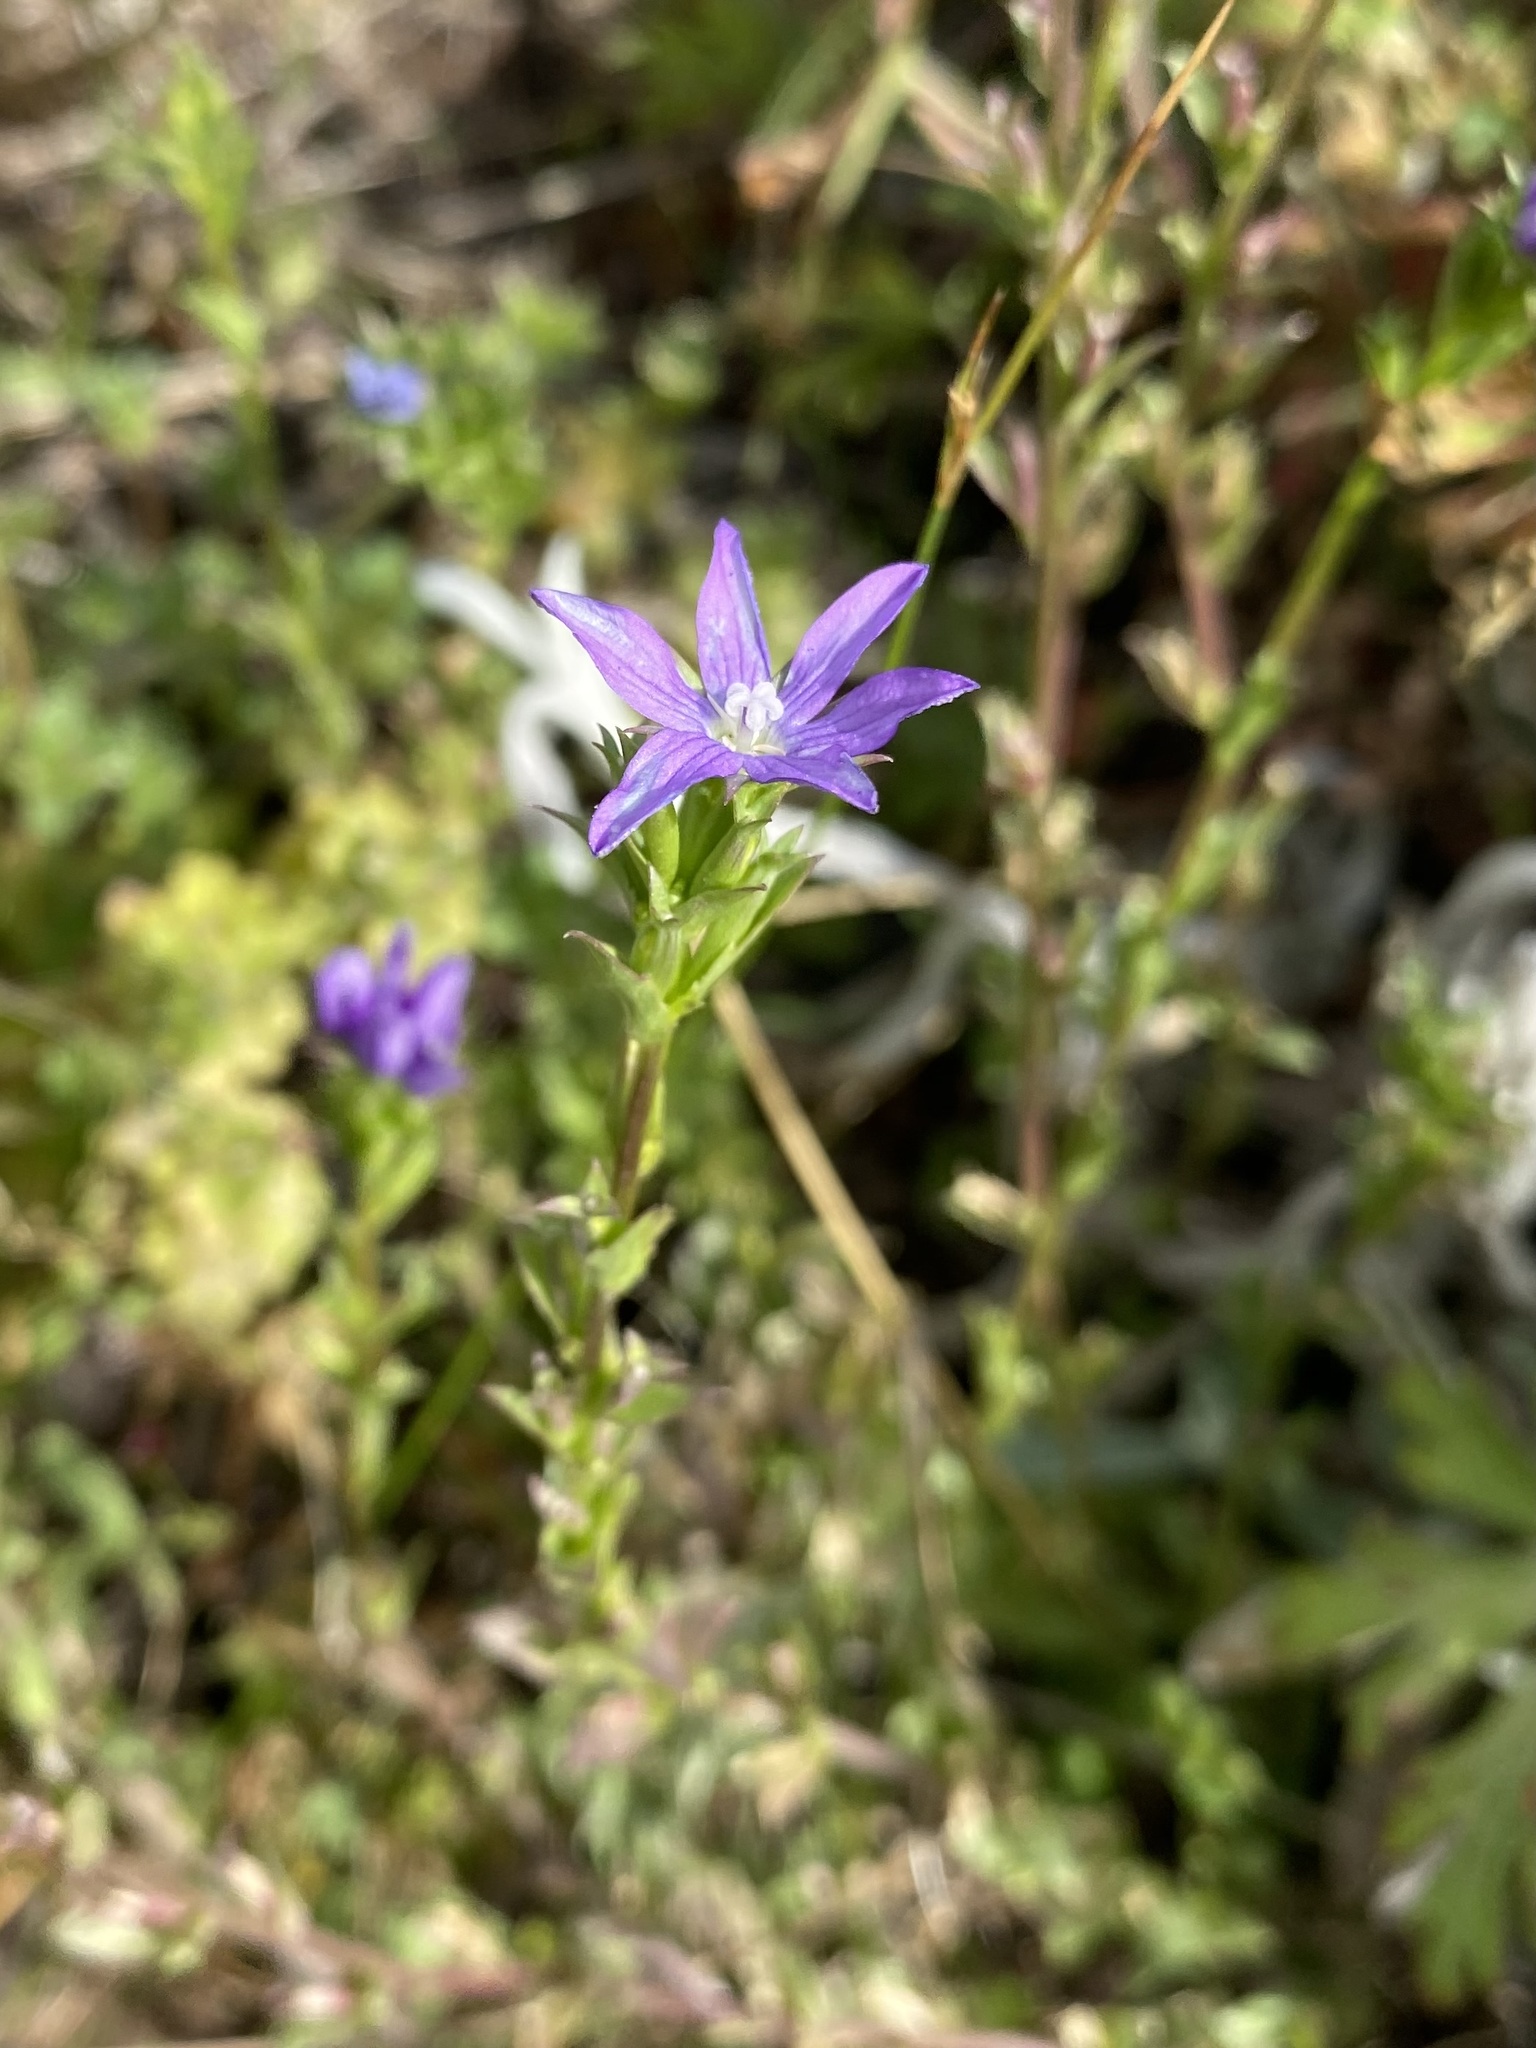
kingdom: Plantae
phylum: Tracheophyta
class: Magnoliopsida
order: Asterales
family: Campanulaceae
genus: Triodanis
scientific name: Triodanis biflora
